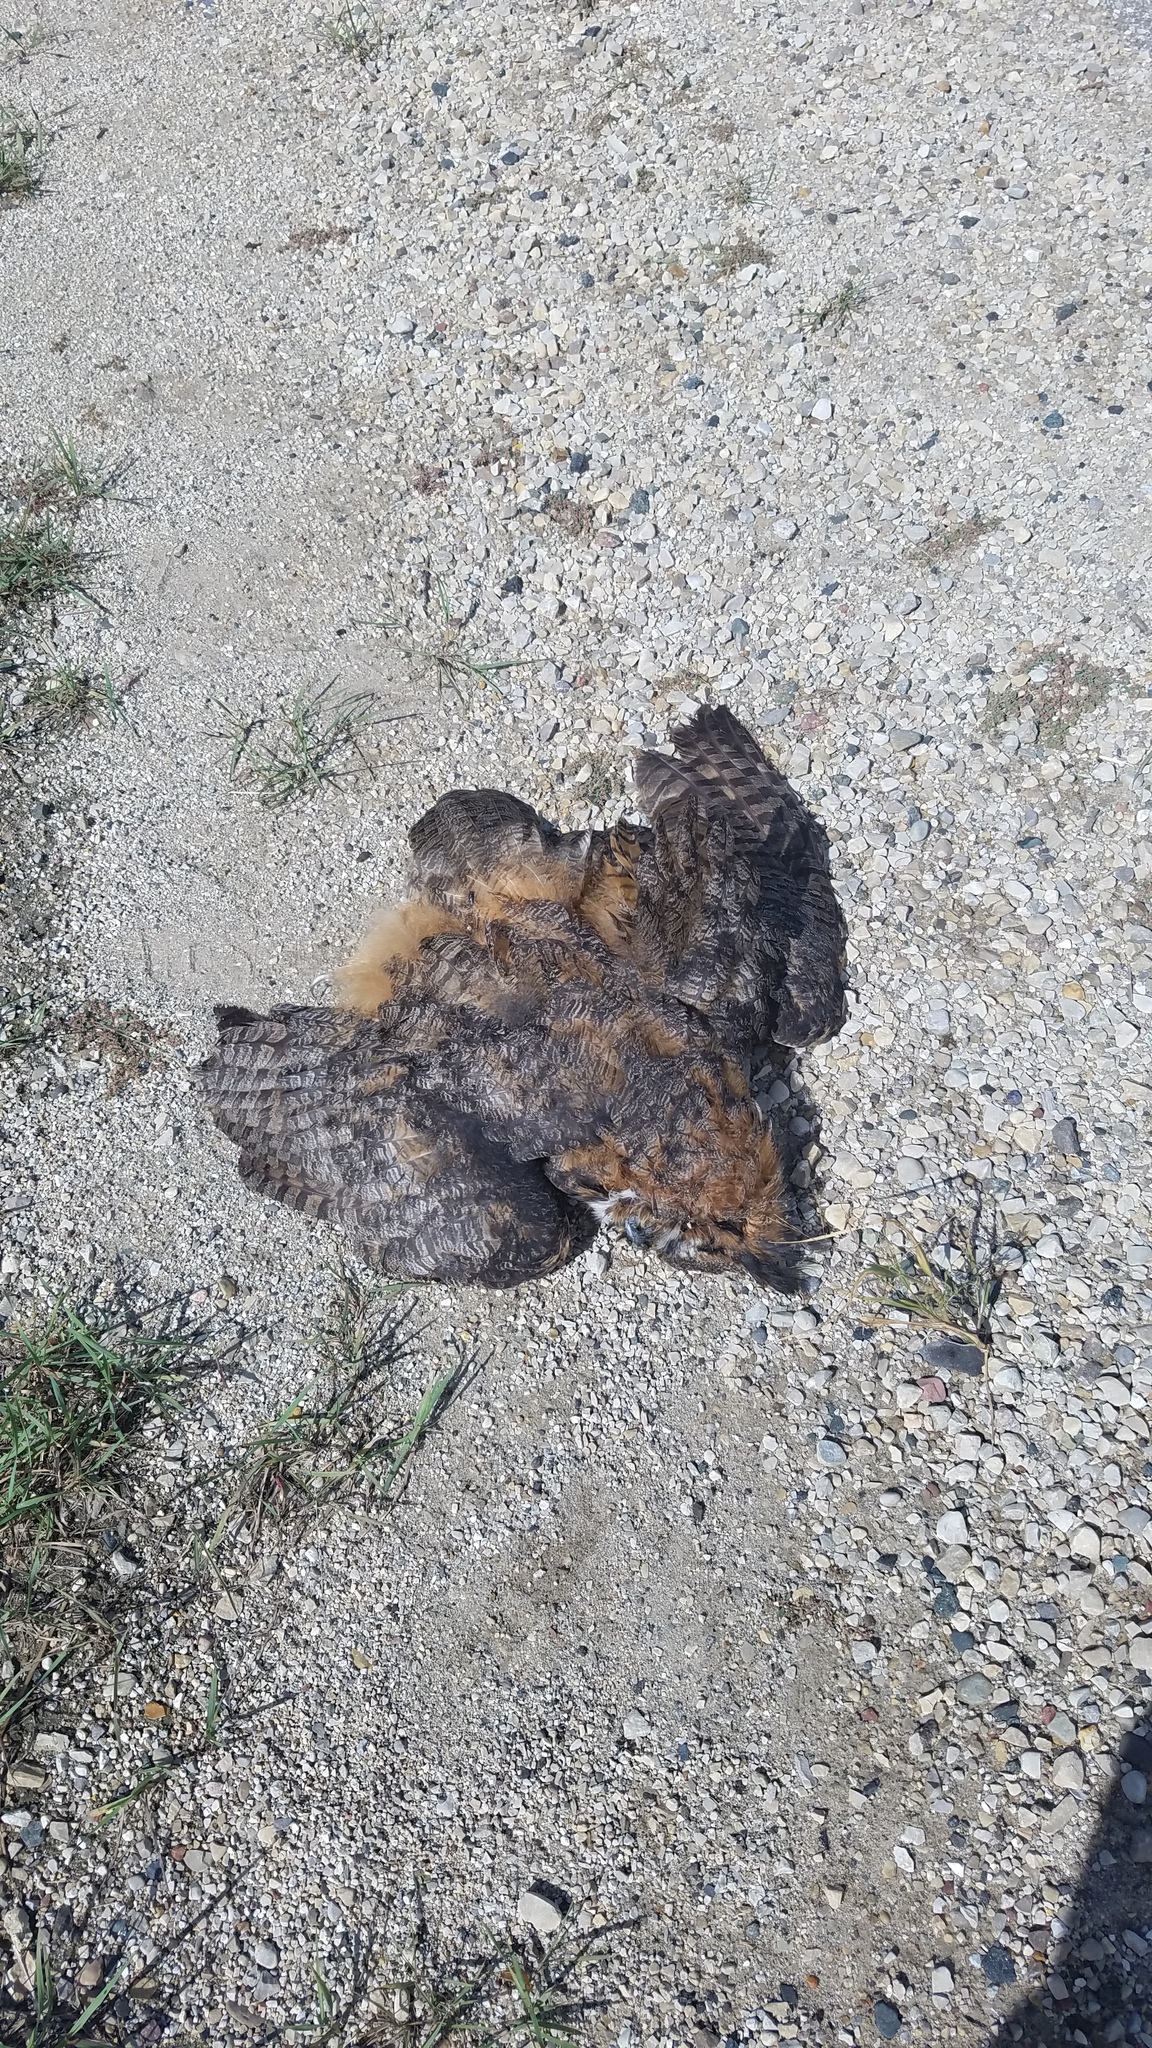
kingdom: Animalia
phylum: Chordata
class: Aves
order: Strigiformes
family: Strigidae
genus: Bubo
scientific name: Bubo virginianus
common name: Great horned owl
